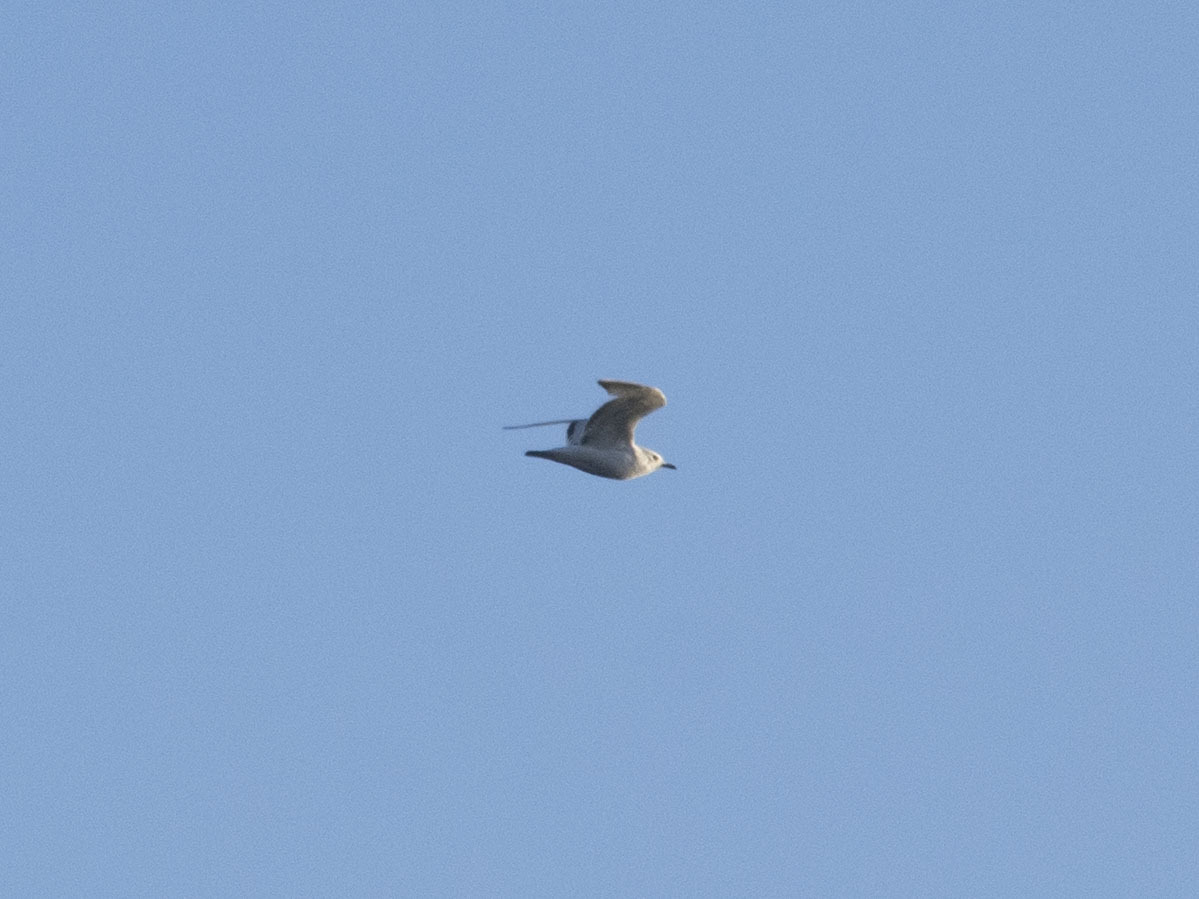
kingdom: Animalia
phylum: Chordata
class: Aves
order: Charadriiformes
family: Laridae
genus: Larus
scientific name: Larus canus
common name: Mew gull
